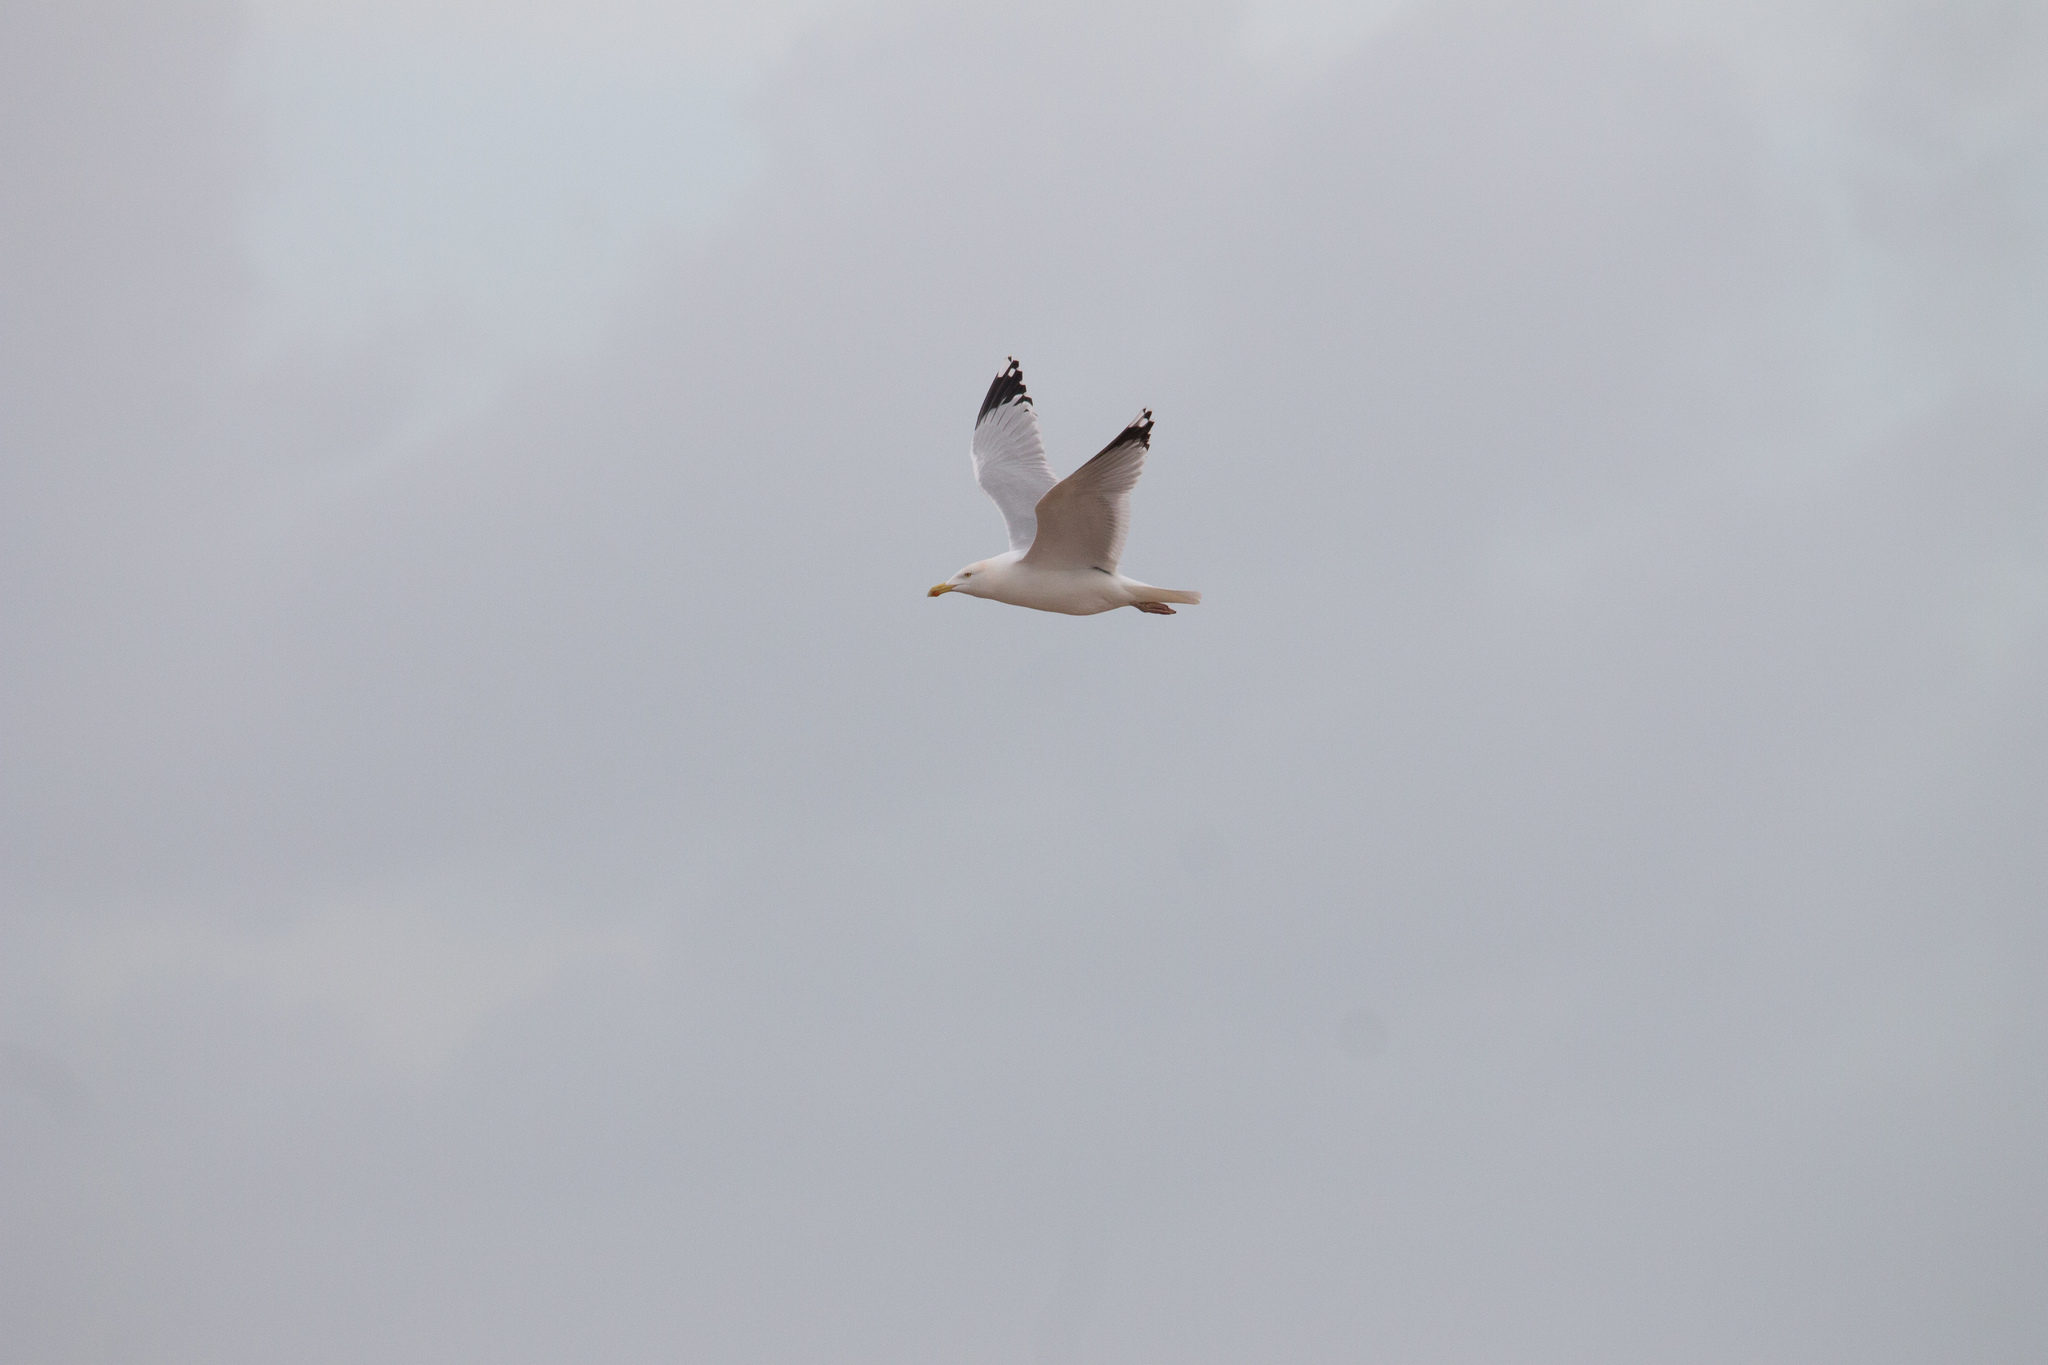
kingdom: Animalia
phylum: Chordata
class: Aves
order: Charadriiformes
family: Laridae
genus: Larus
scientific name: Larus argentatus
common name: Herring gull
